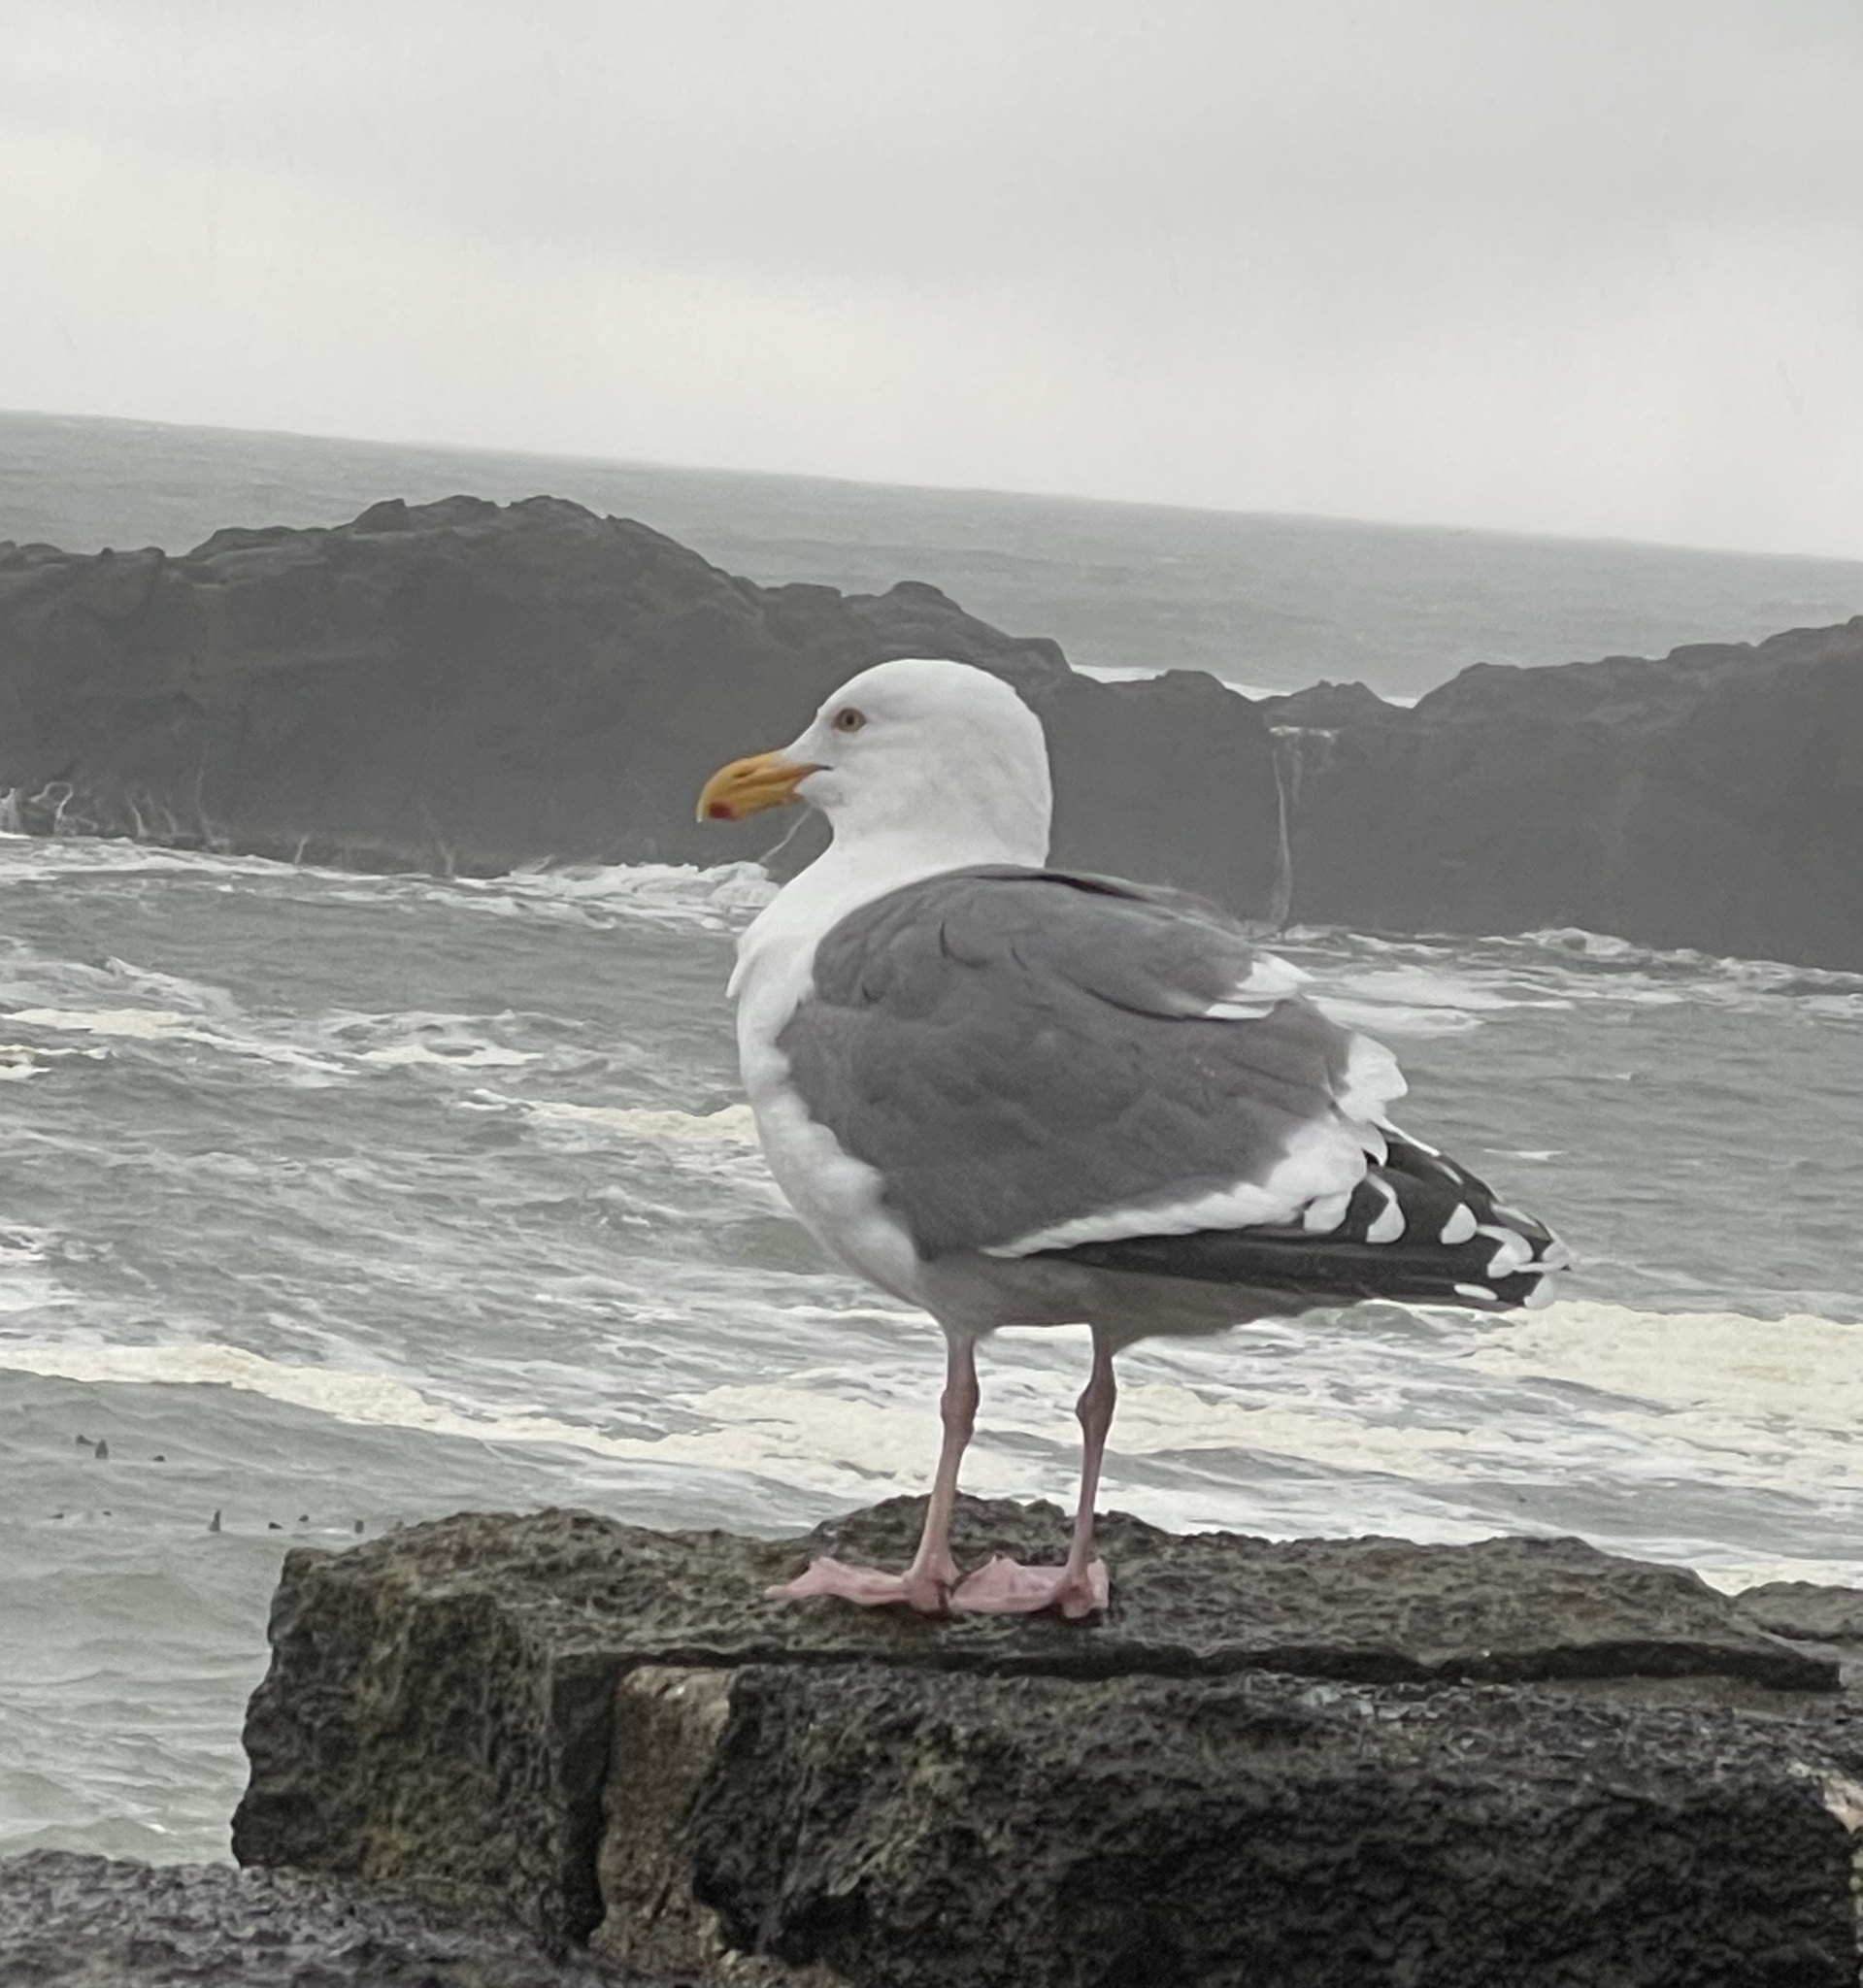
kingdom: Animalia
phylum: Chordata
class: Aves
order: Charadriiformes
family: Laridae
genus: Larus
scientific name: Larus occidentalis
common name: Western gull
